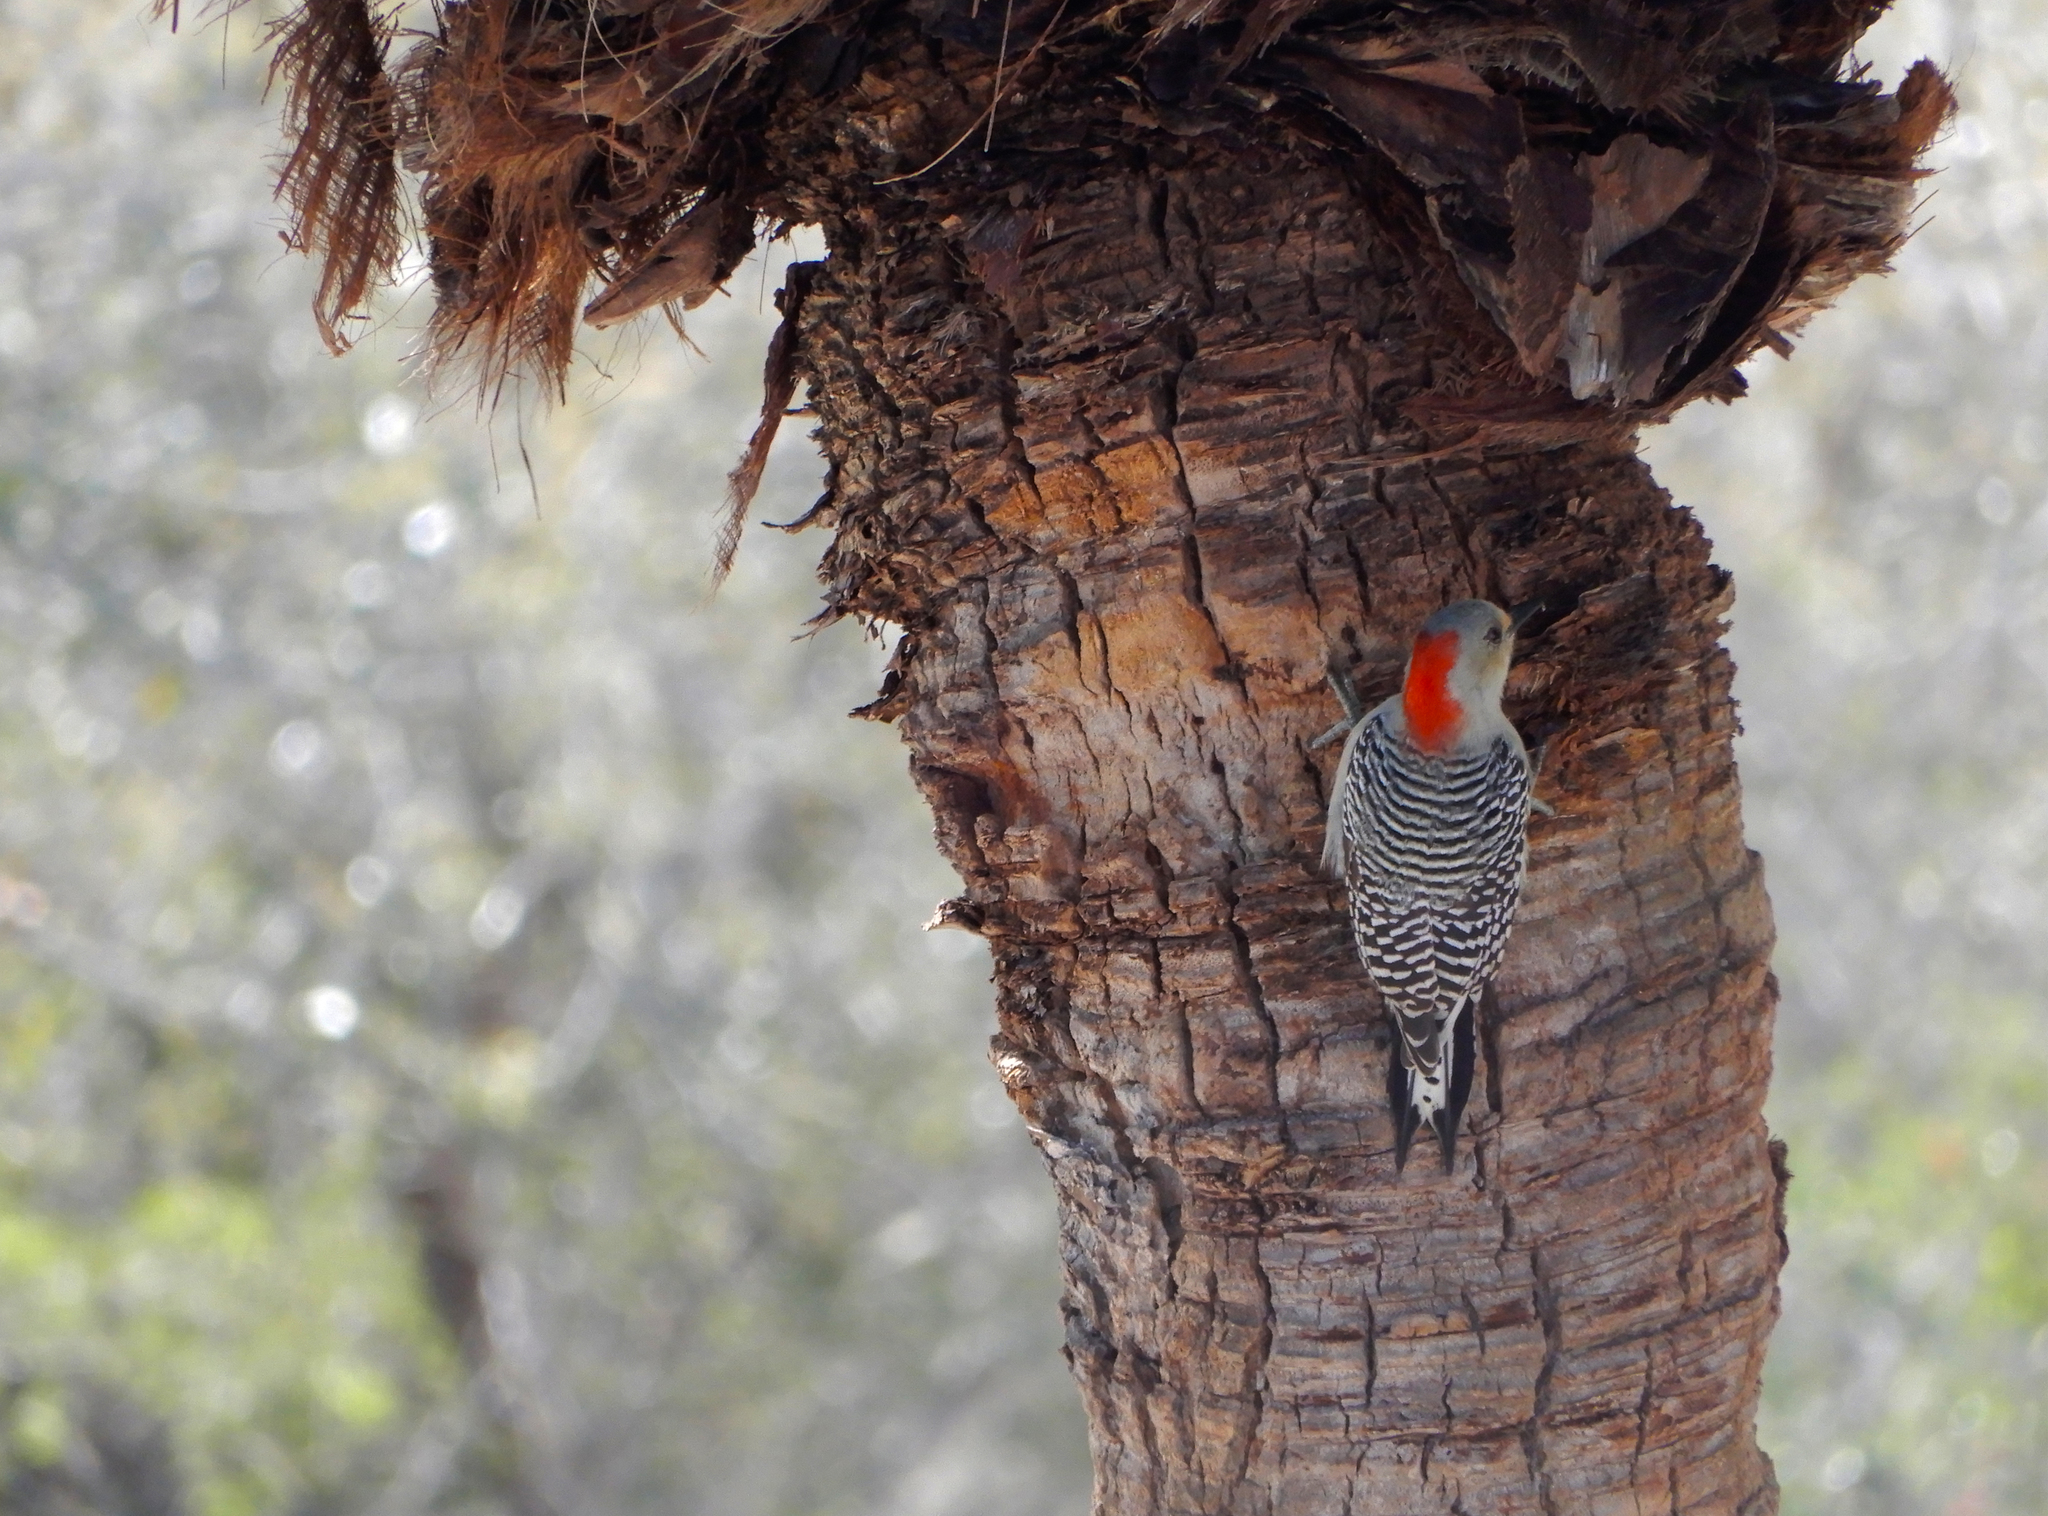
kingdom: Animalia
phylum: Chordata
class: Aves
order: Piciformes
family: Picidae
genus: Melanerpes
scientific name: Melanerpes carolinus
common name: Red-bellied woodpecker
